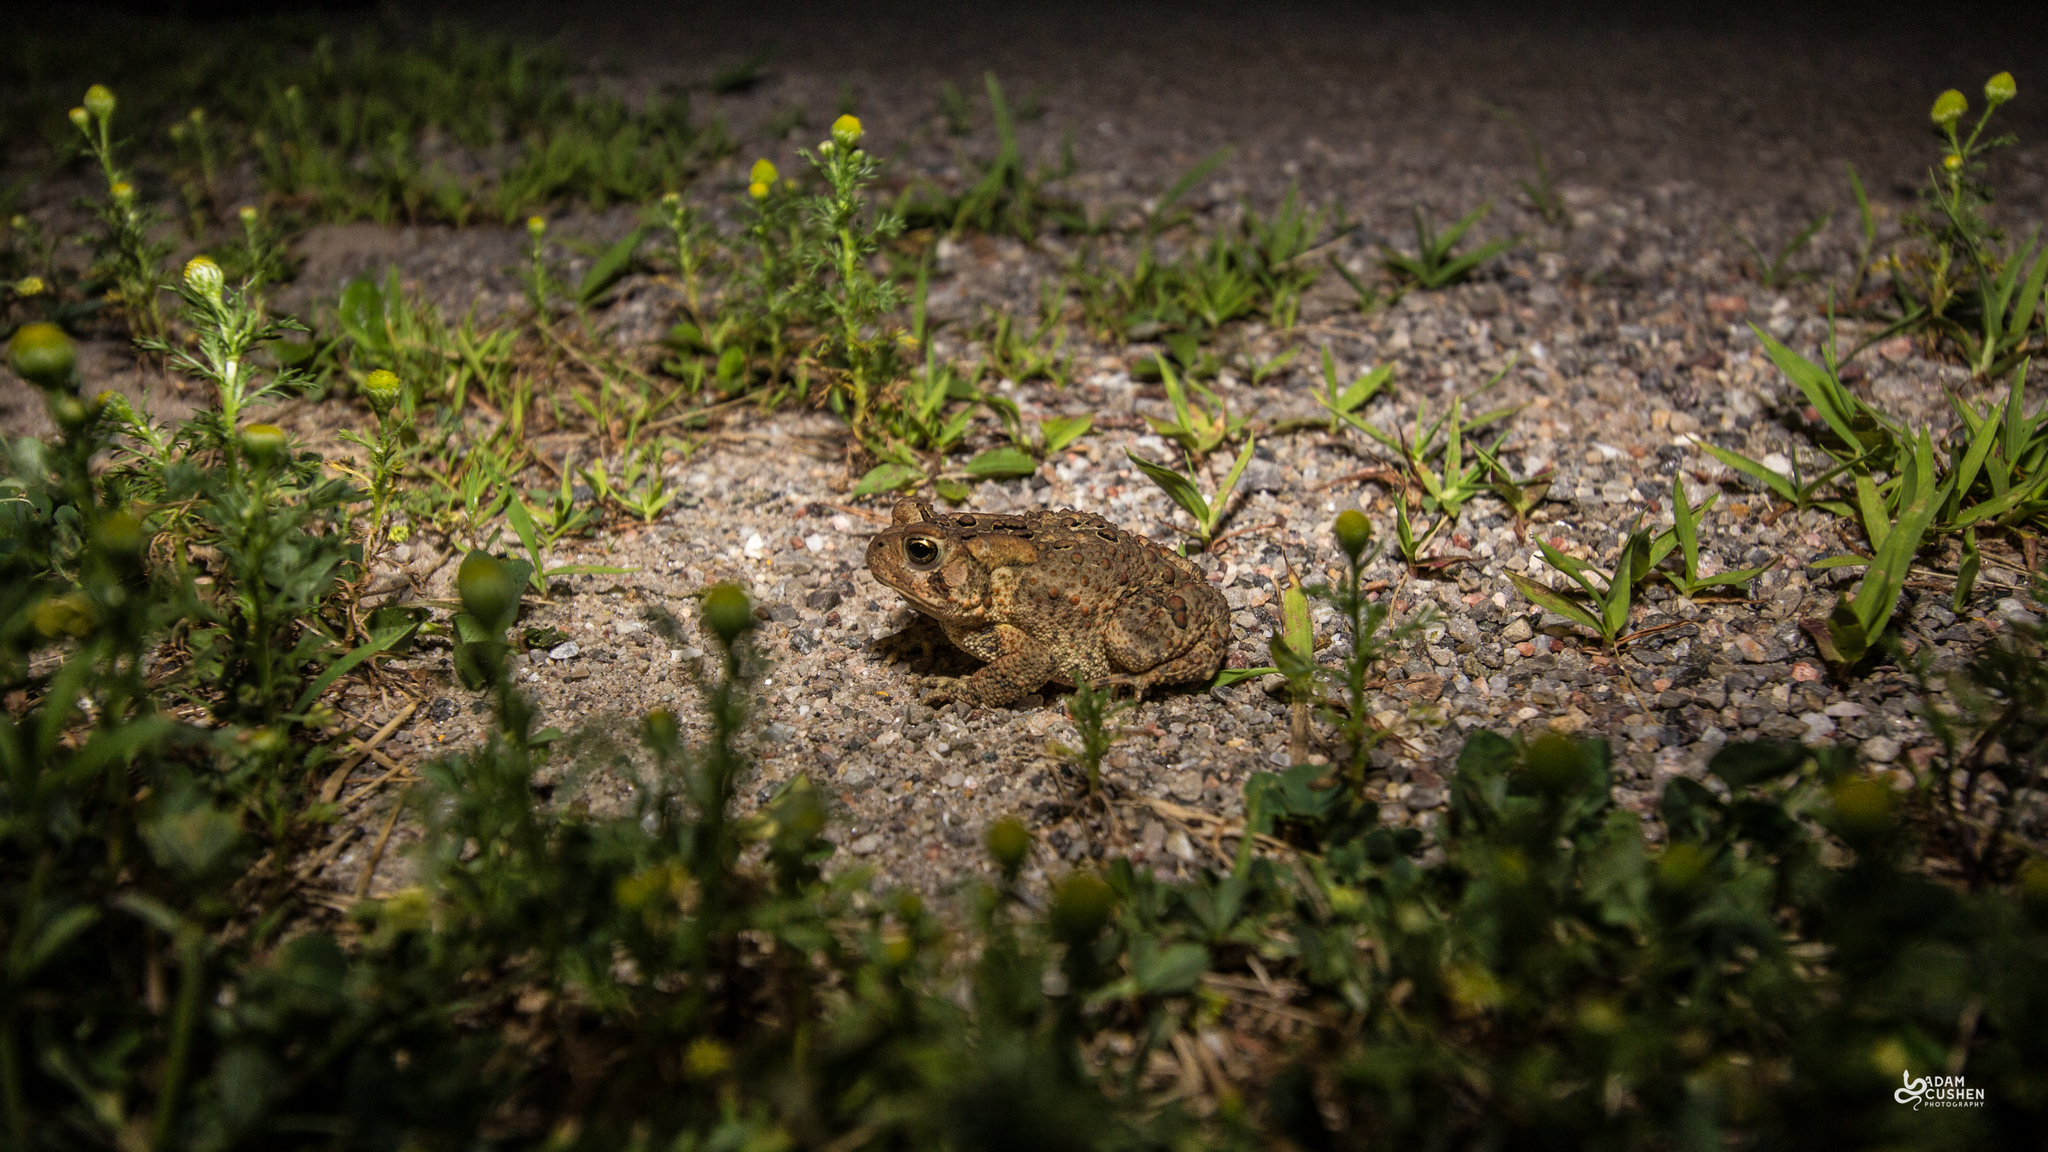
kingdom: Animalia
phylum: Chordata
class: Amphibia
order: Anura
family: Bufonidae
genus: Anaxyrus
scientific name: Anaxyrus americanus
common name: American toad
